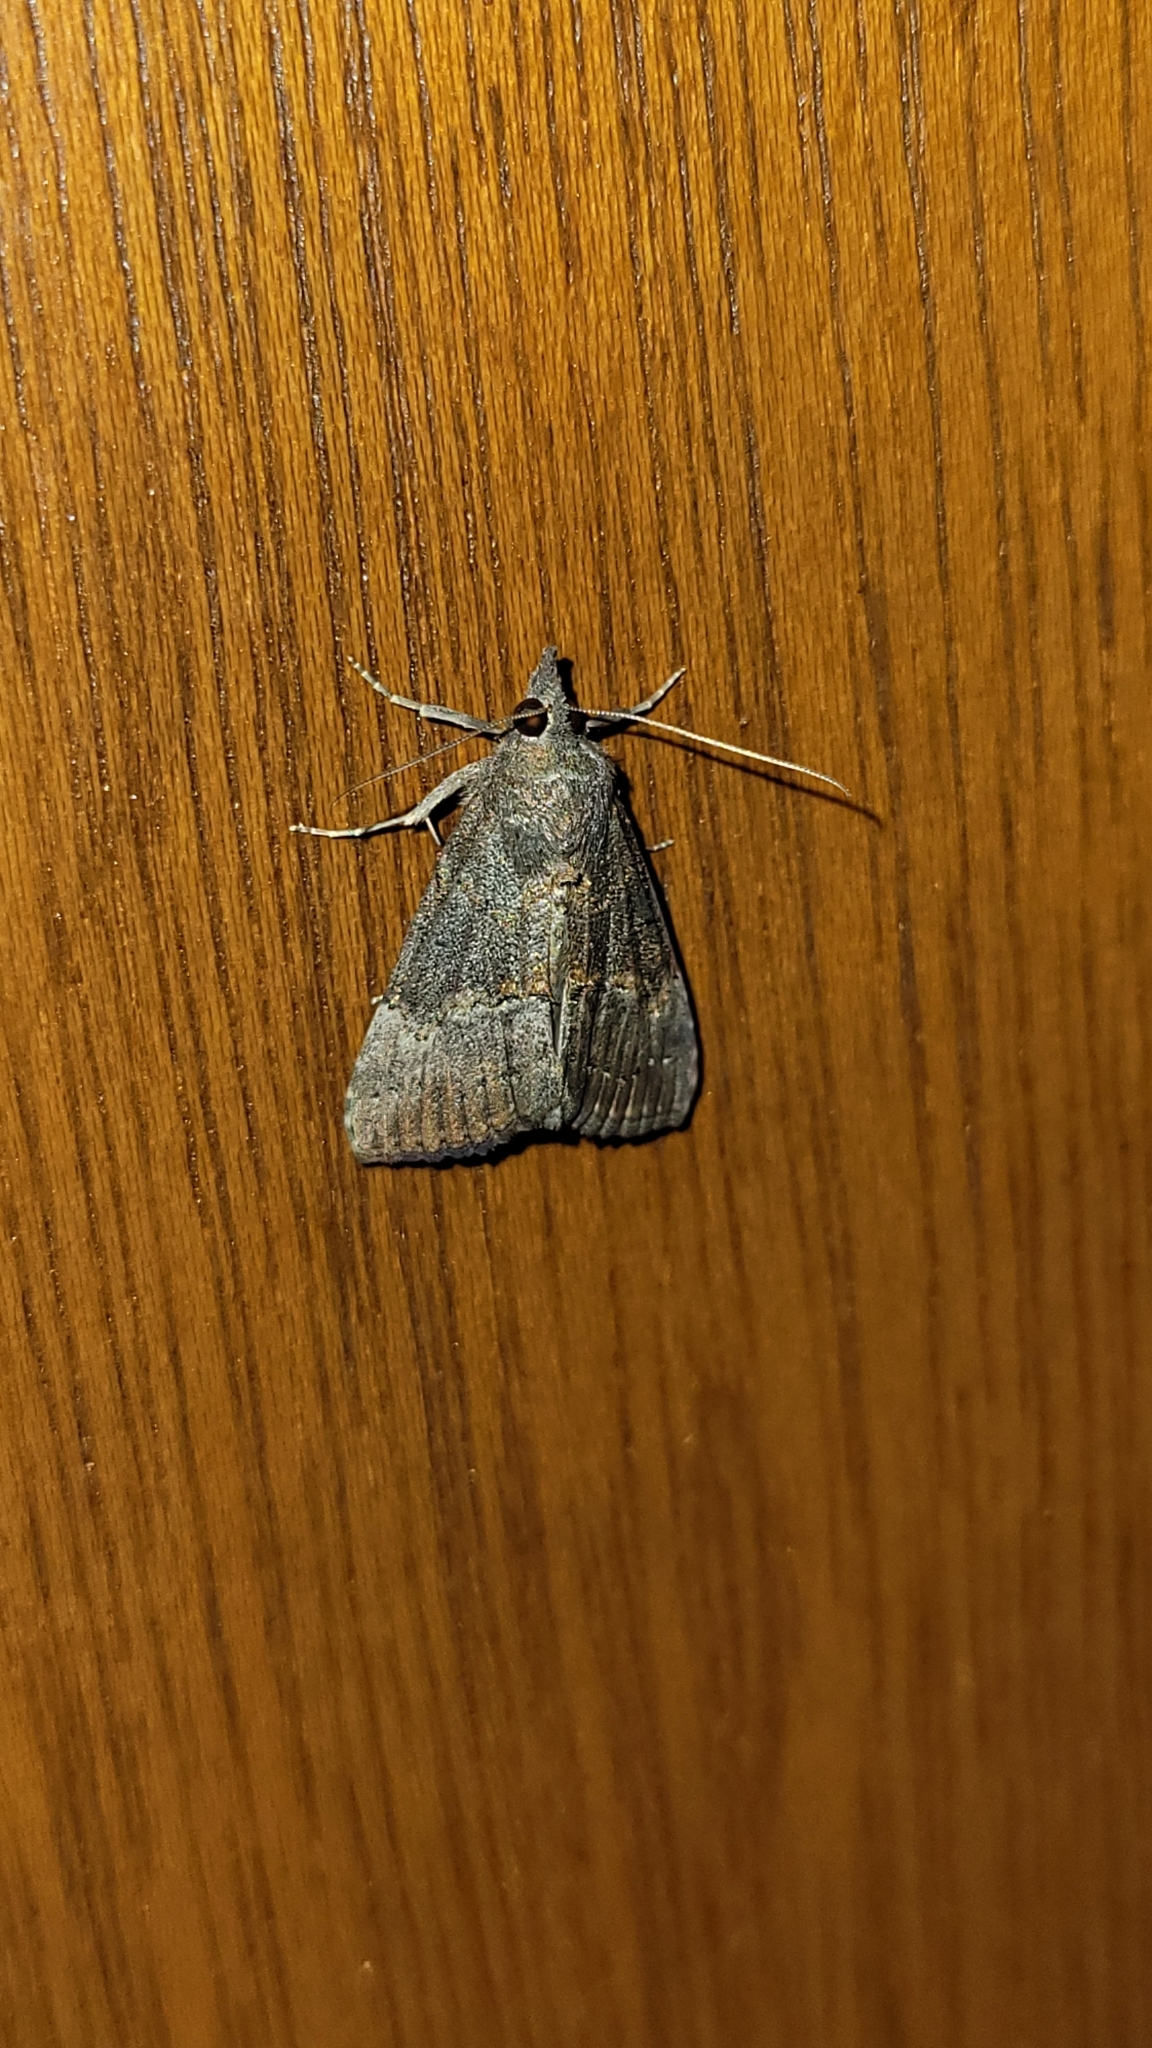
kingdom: Animalia
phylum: Arthropoda
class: Insecta
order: Lepidoptera
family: Erebidae
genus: Hypena
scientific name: Hypena scabra
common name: Green cloverworm
